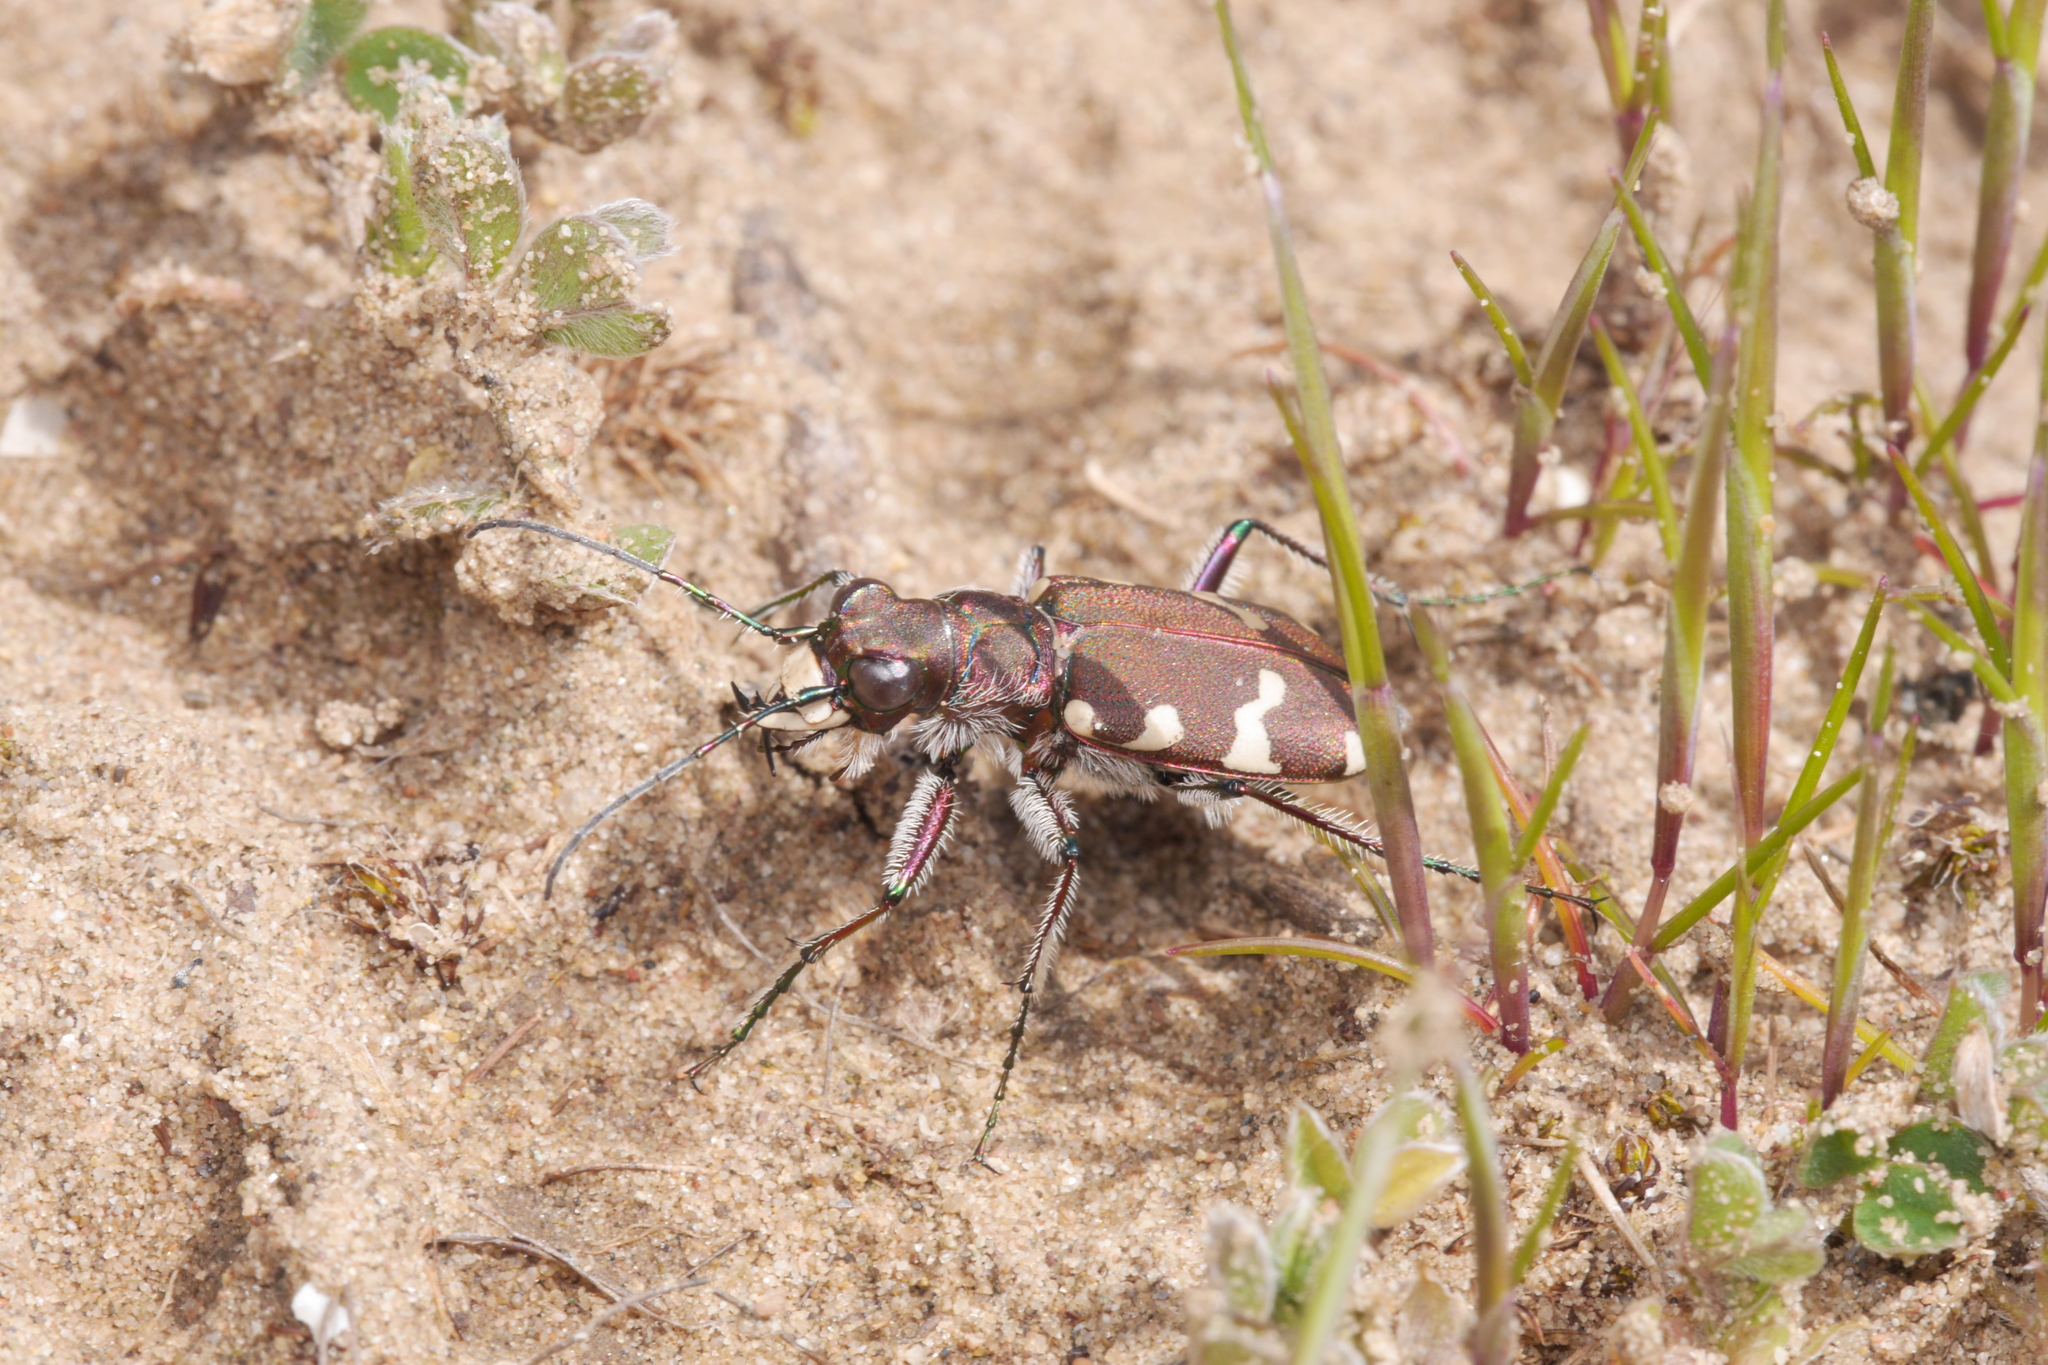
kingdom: Animalia
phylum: Arthropoda
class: Insecta
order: Coleoptera
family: Carabidae
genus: Cicindela
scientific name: Cicindela hybrida
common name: Northern dune tiger beetle
